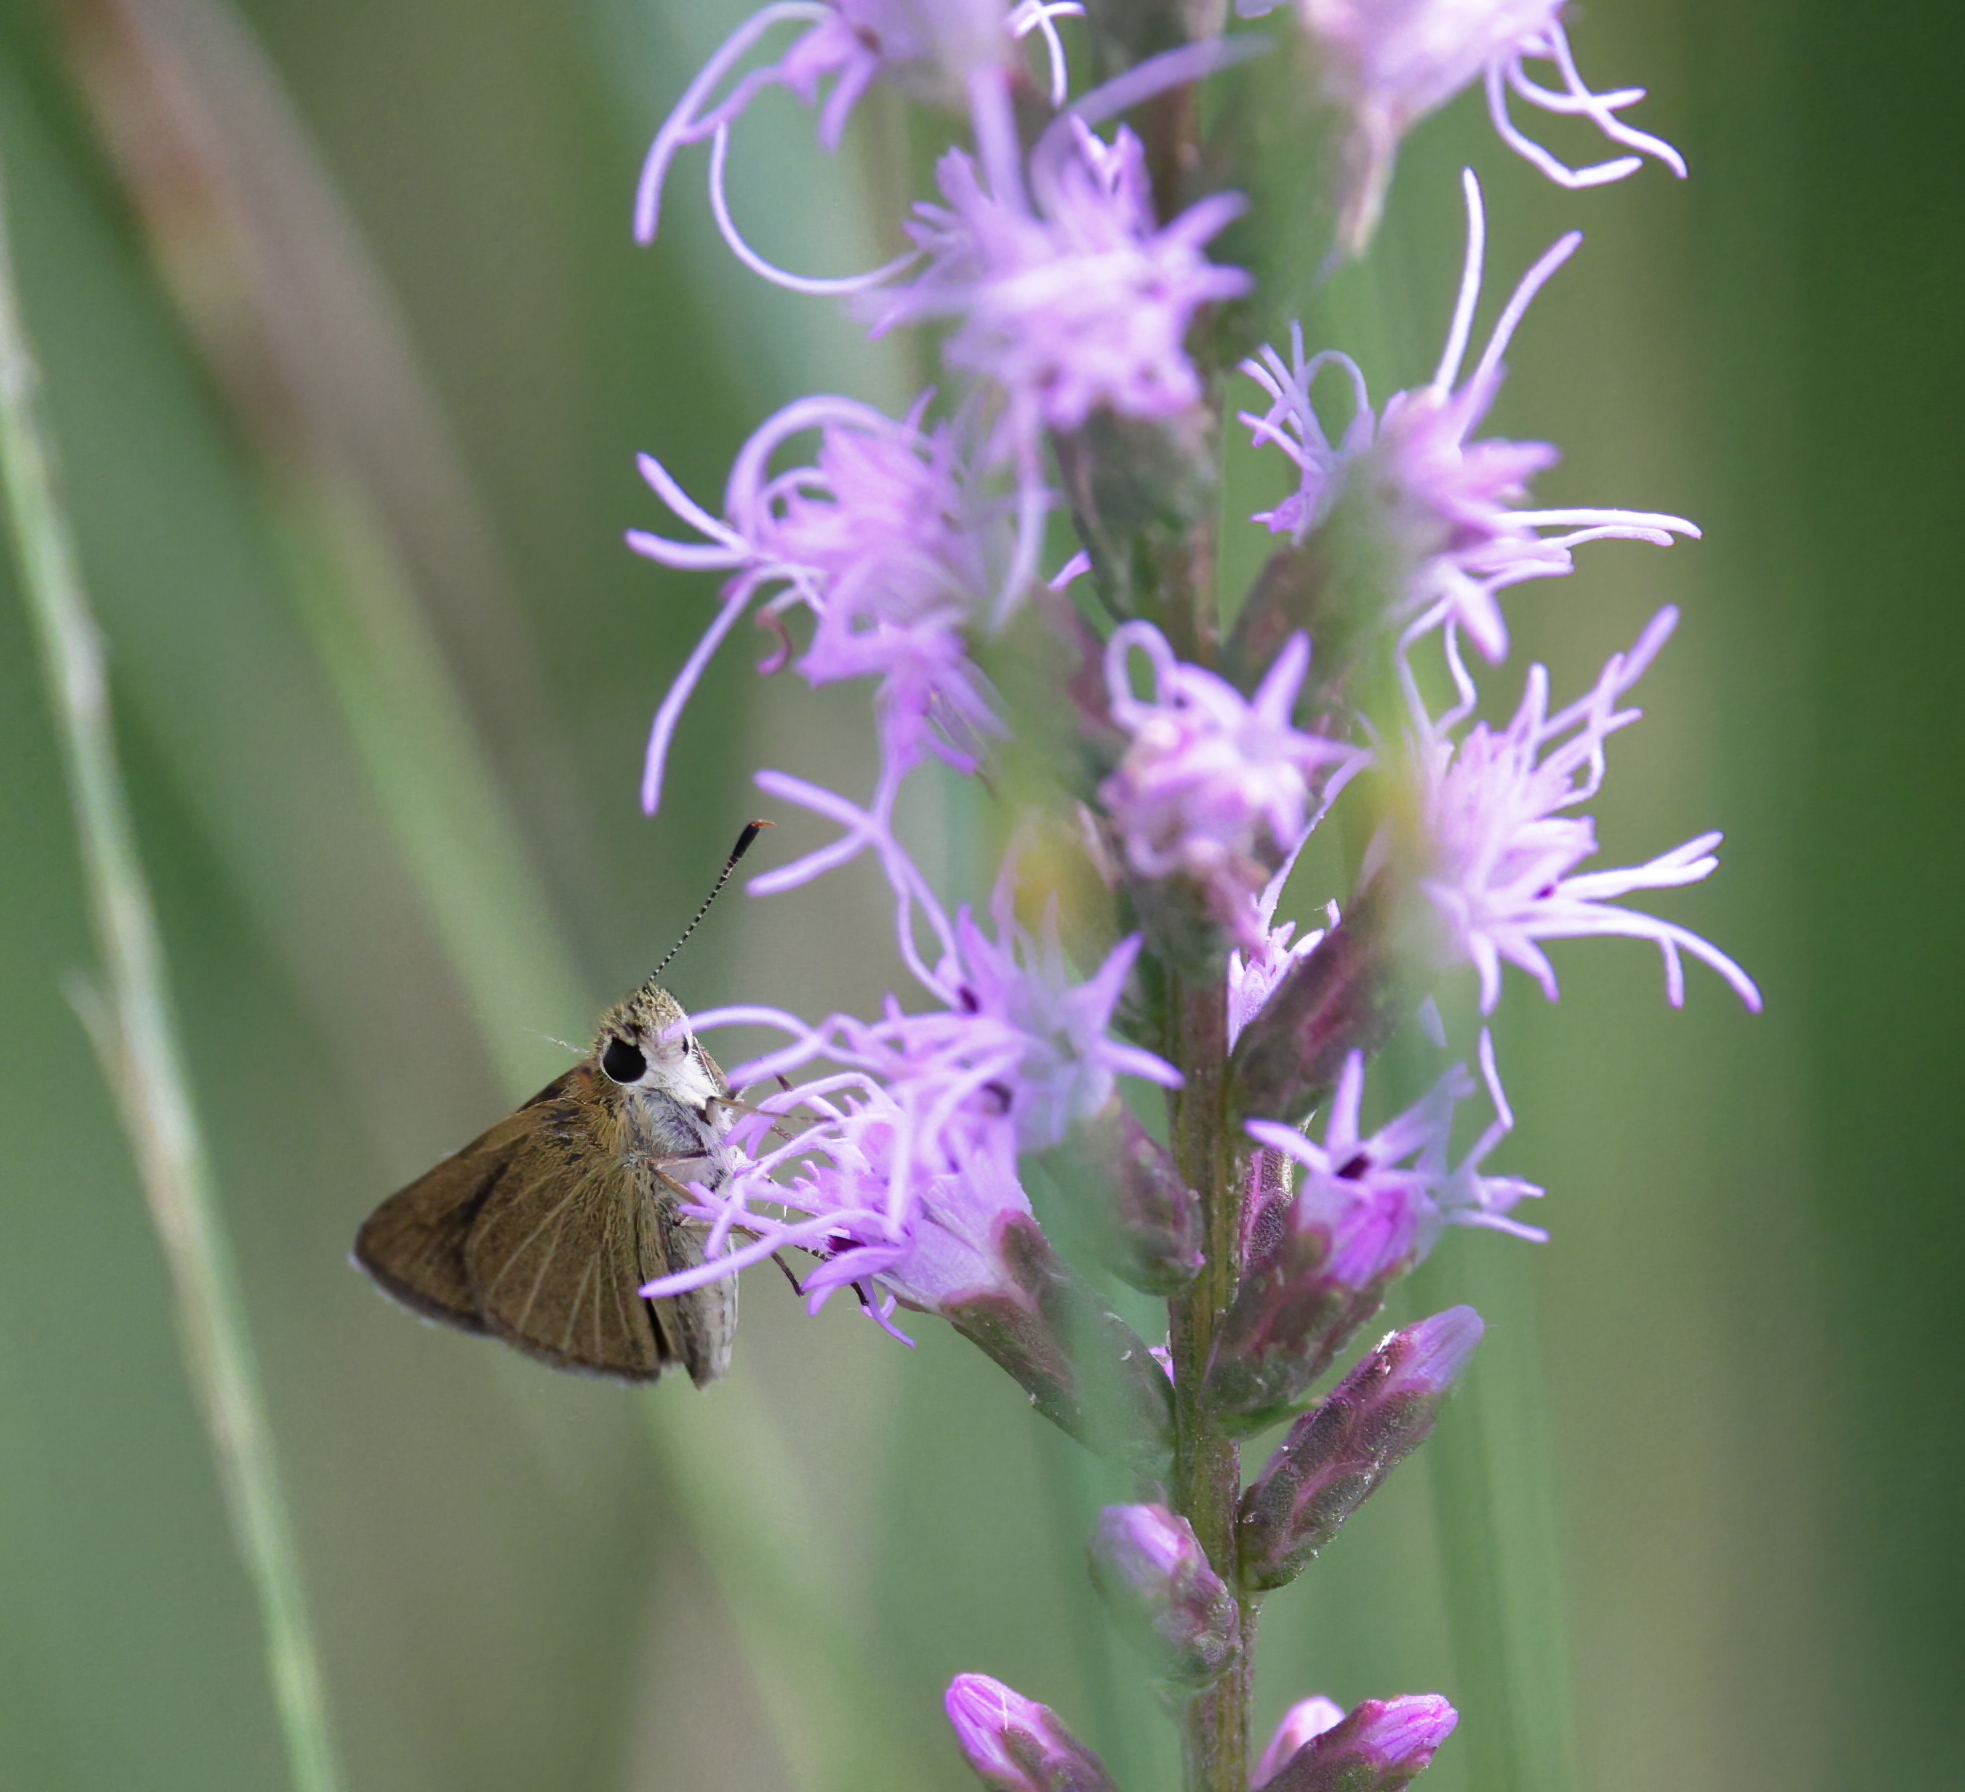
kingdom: Animalia
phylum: Arthropoda
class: Insecta
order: Lepidoptera
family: Hesperiidae
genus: Nastra
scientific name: Nastra lherminier
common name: Swarthy skipper
